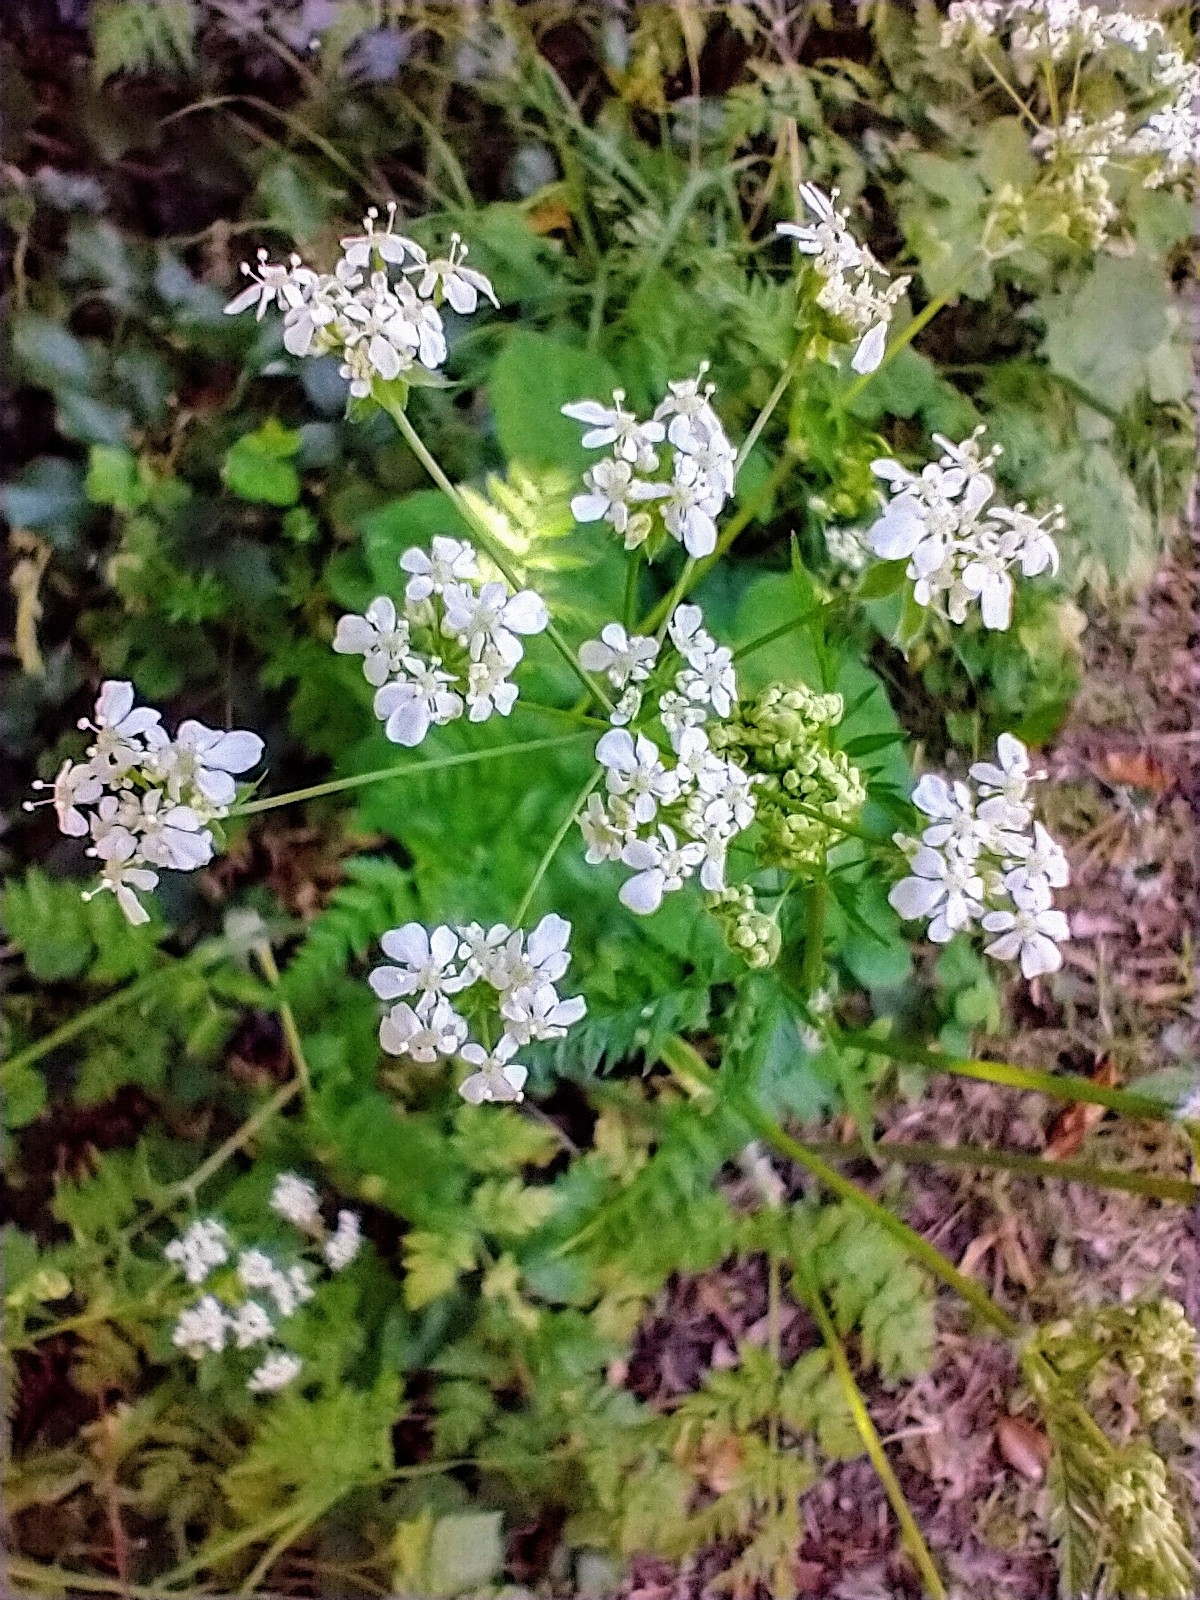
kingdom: Plantae
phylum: Tracheophyta
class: Magnoliopsida
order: Apiales
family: Apiaceae
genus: Anthriscus
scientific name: Anthriscus sylvestris
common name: Cow parsley
